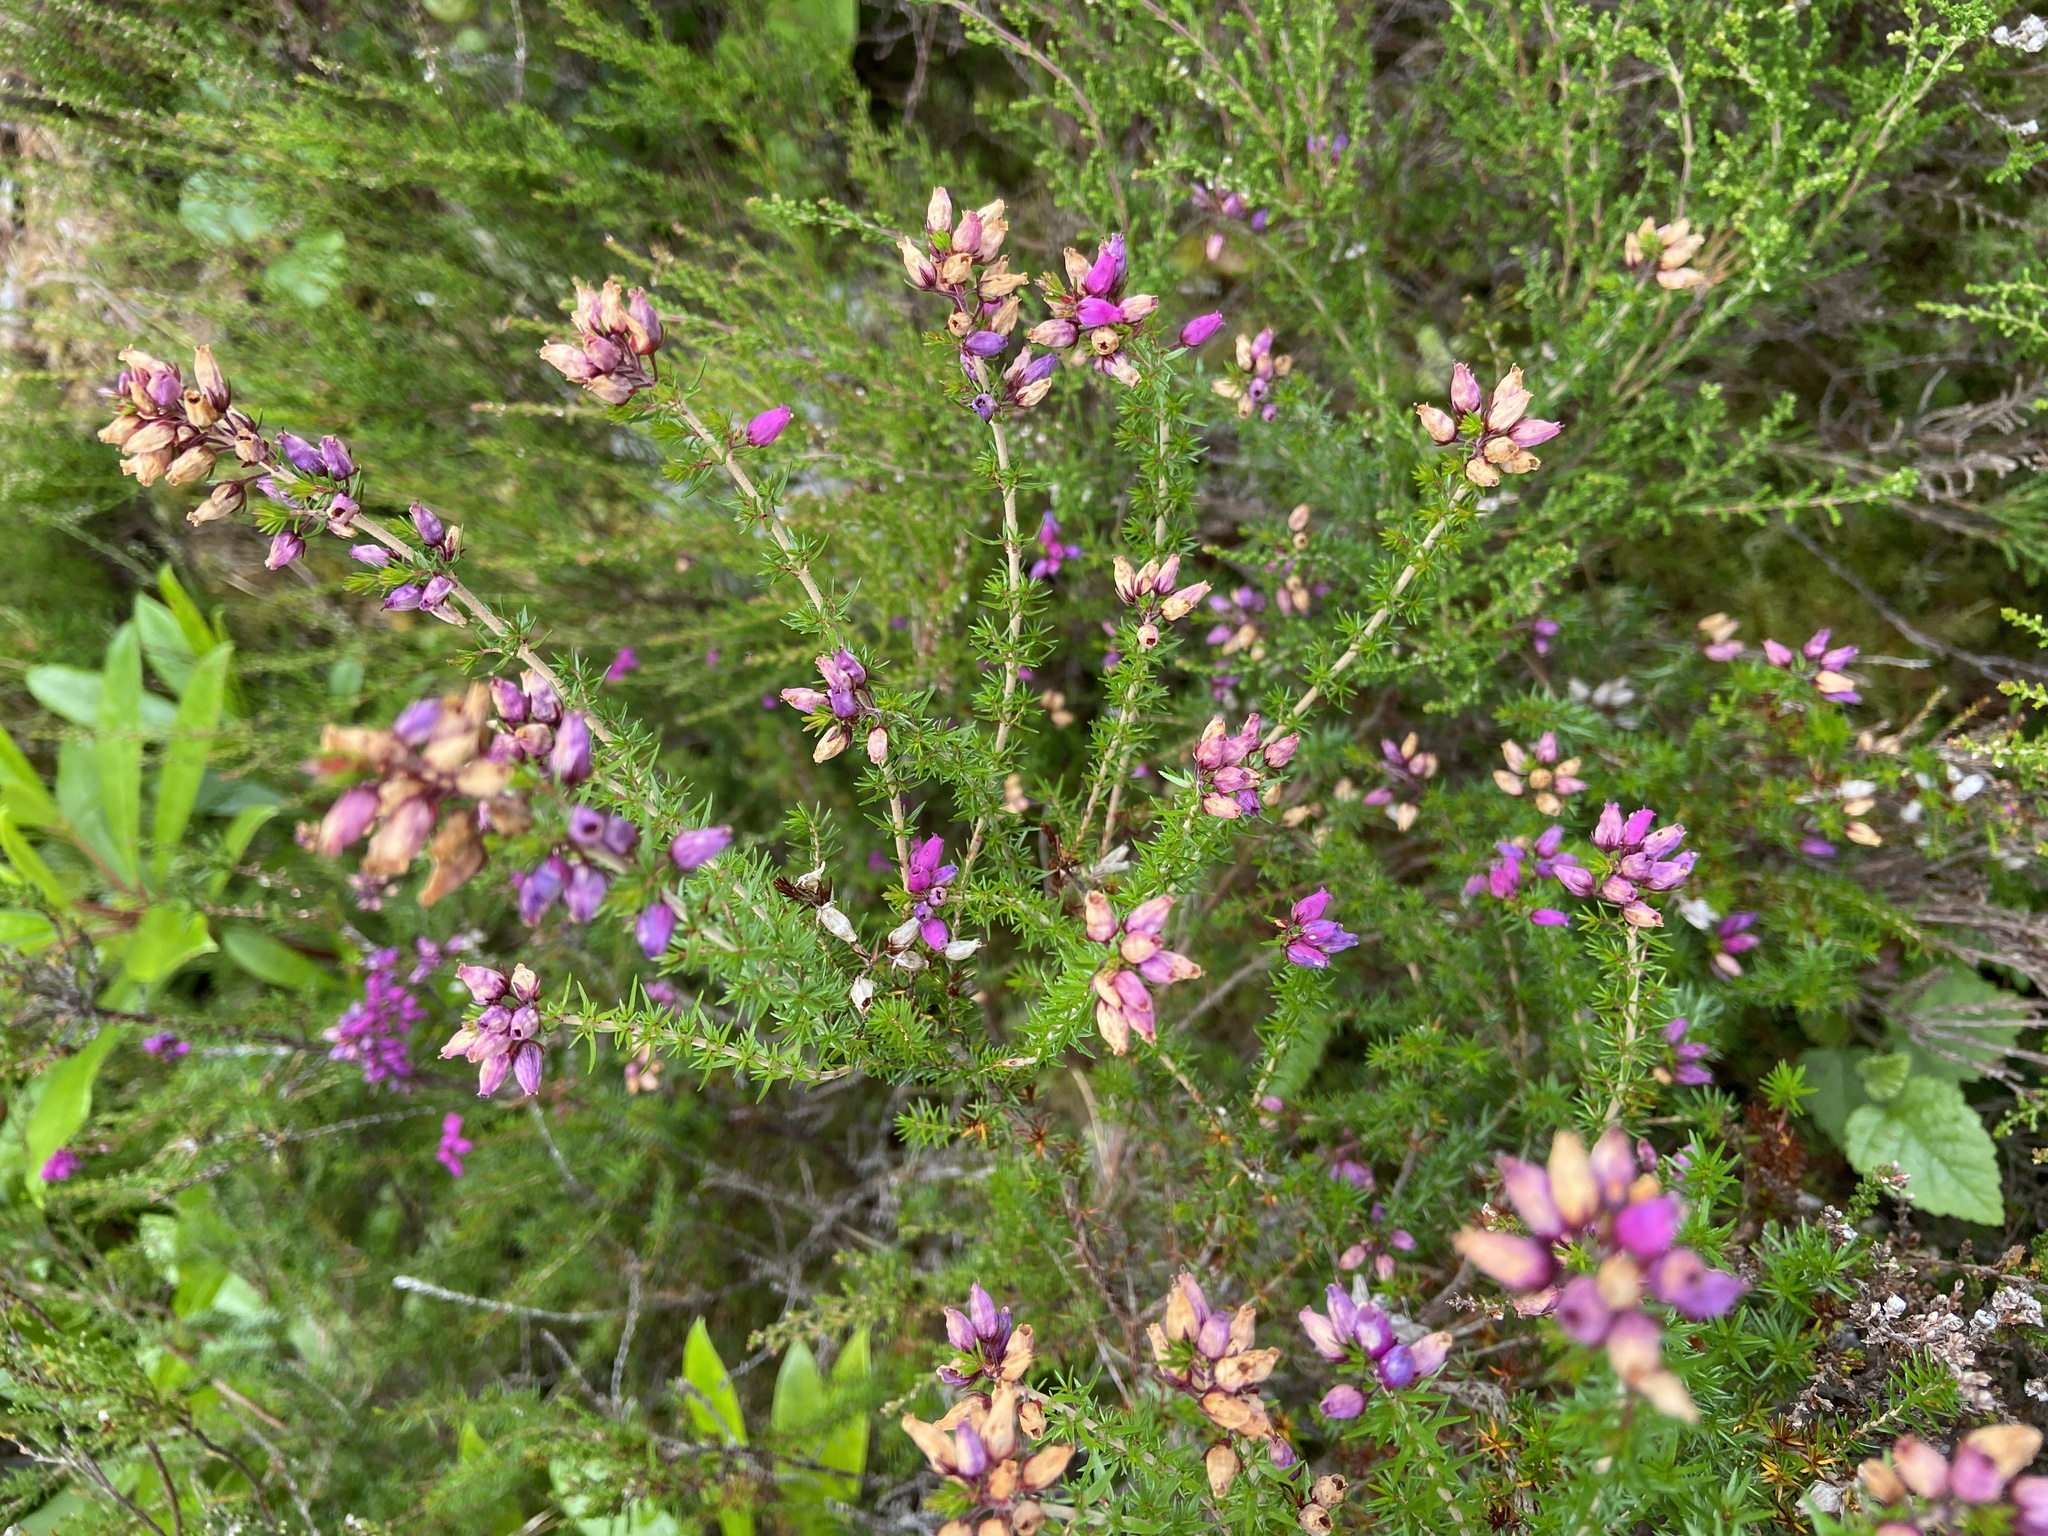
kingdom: Plantae
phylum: Tracheophyta
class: Magnoliopsida
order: Ericales
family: Ericaceae
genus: Erica
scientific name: Erica cinerea
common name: Bell heather
